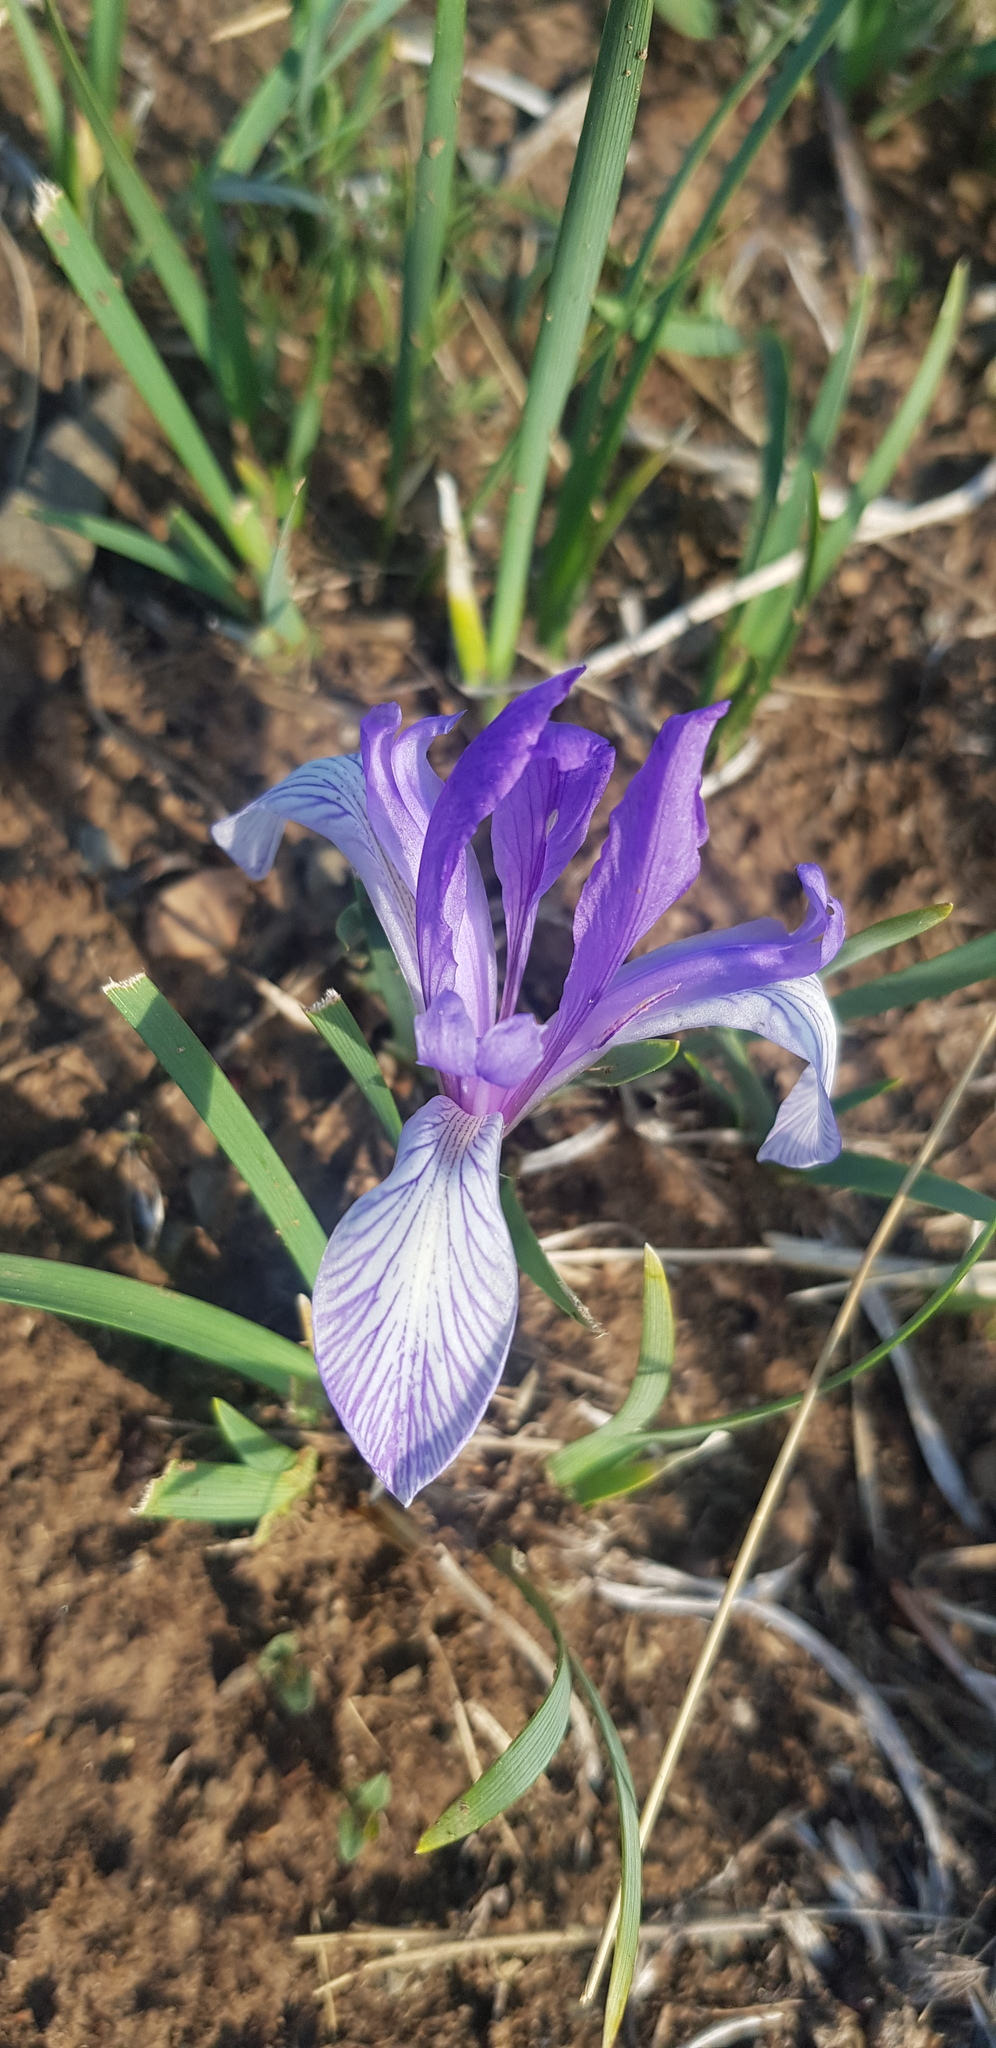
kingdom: Plantae
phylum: Tracheophyta
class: Liliopsida
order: Asparagales
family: Iridaceae
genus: Iris
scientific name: Iris lactea
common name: White-flower chinese iris
